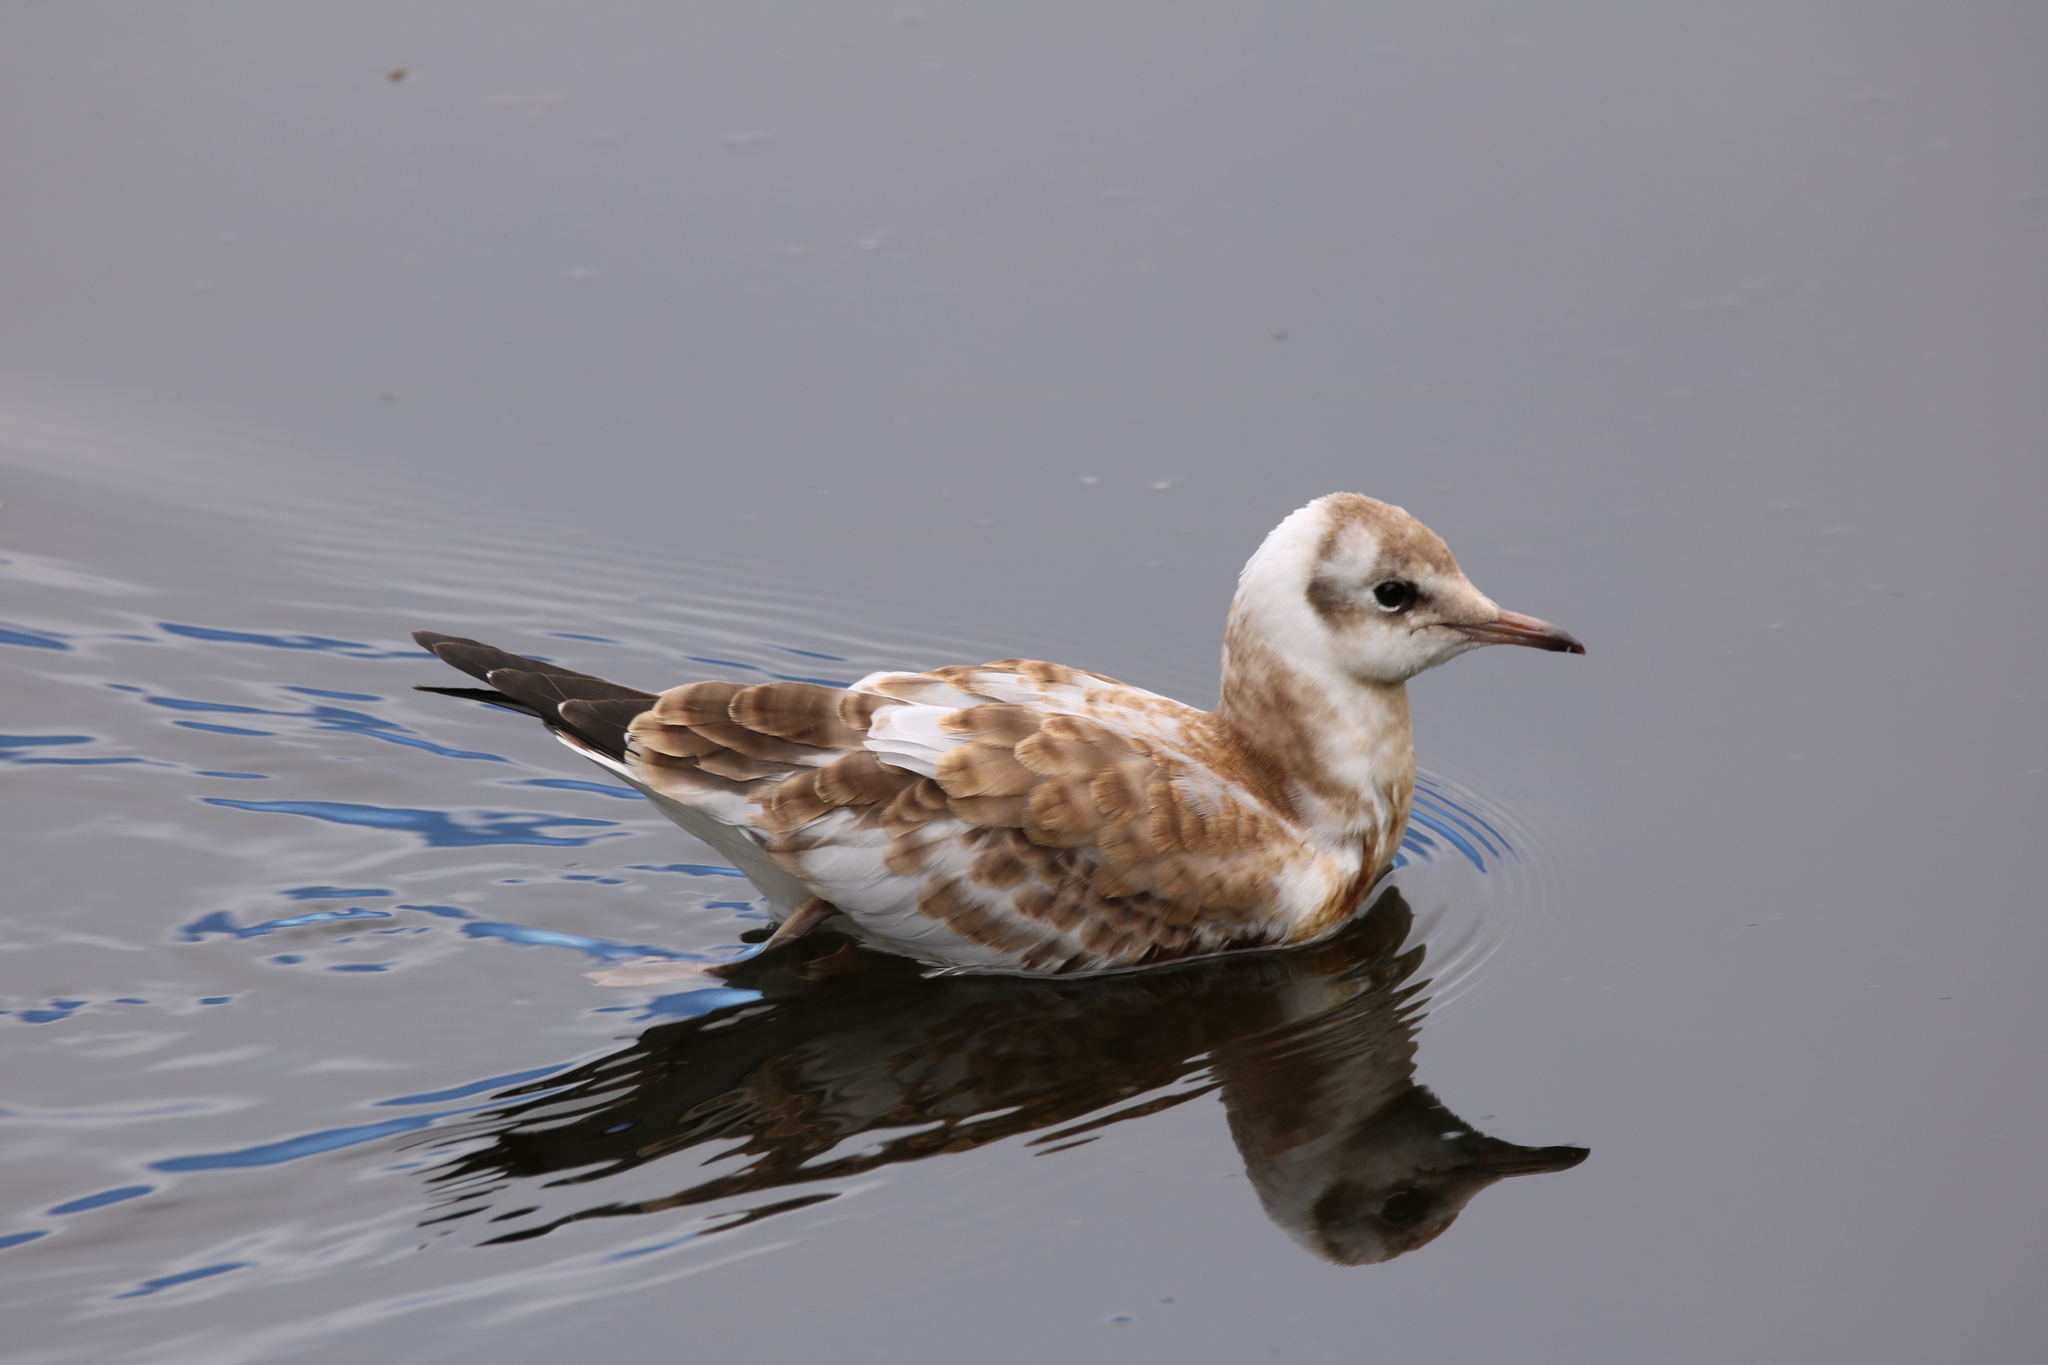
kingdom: Animalia
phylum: Chordata
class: Aves
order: Charadriiformes
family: Laridae
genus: Chroicocephalus
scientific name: Chroicocephalus ridibundus
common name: Black-headed gull
